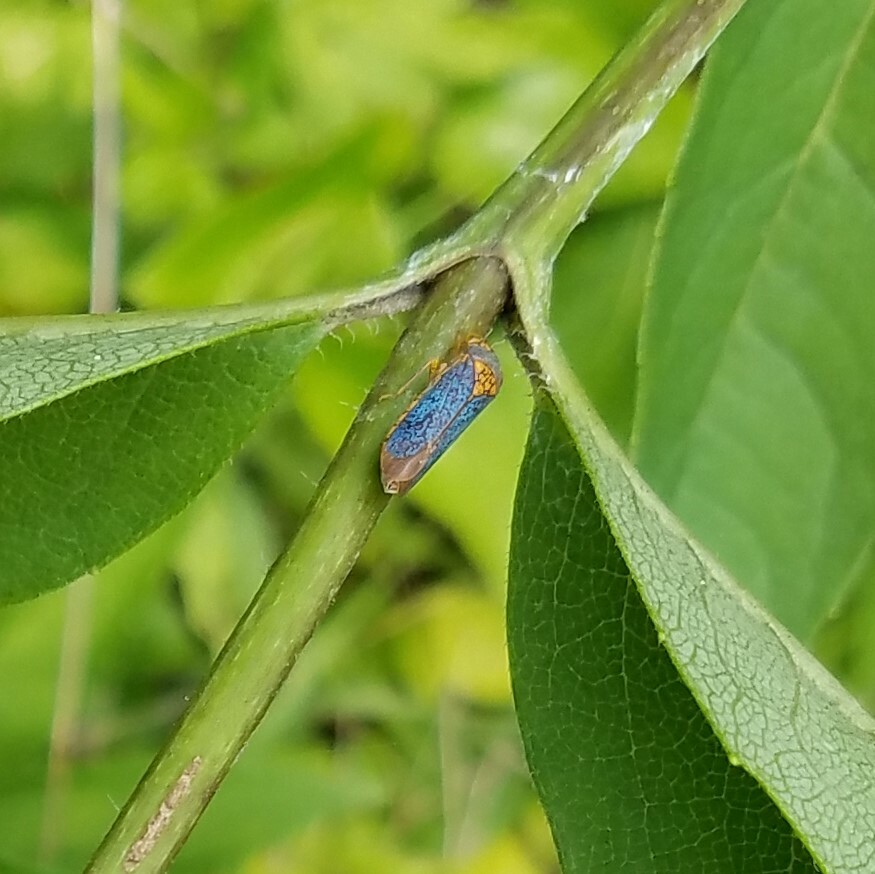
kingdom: Animalia
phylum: Arthropoda
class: Insecta
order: Hemiptera
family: Cicadellidae
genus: Oncometopia
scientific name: Oncometopia orbona
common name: Broad-headed sharpshooter
